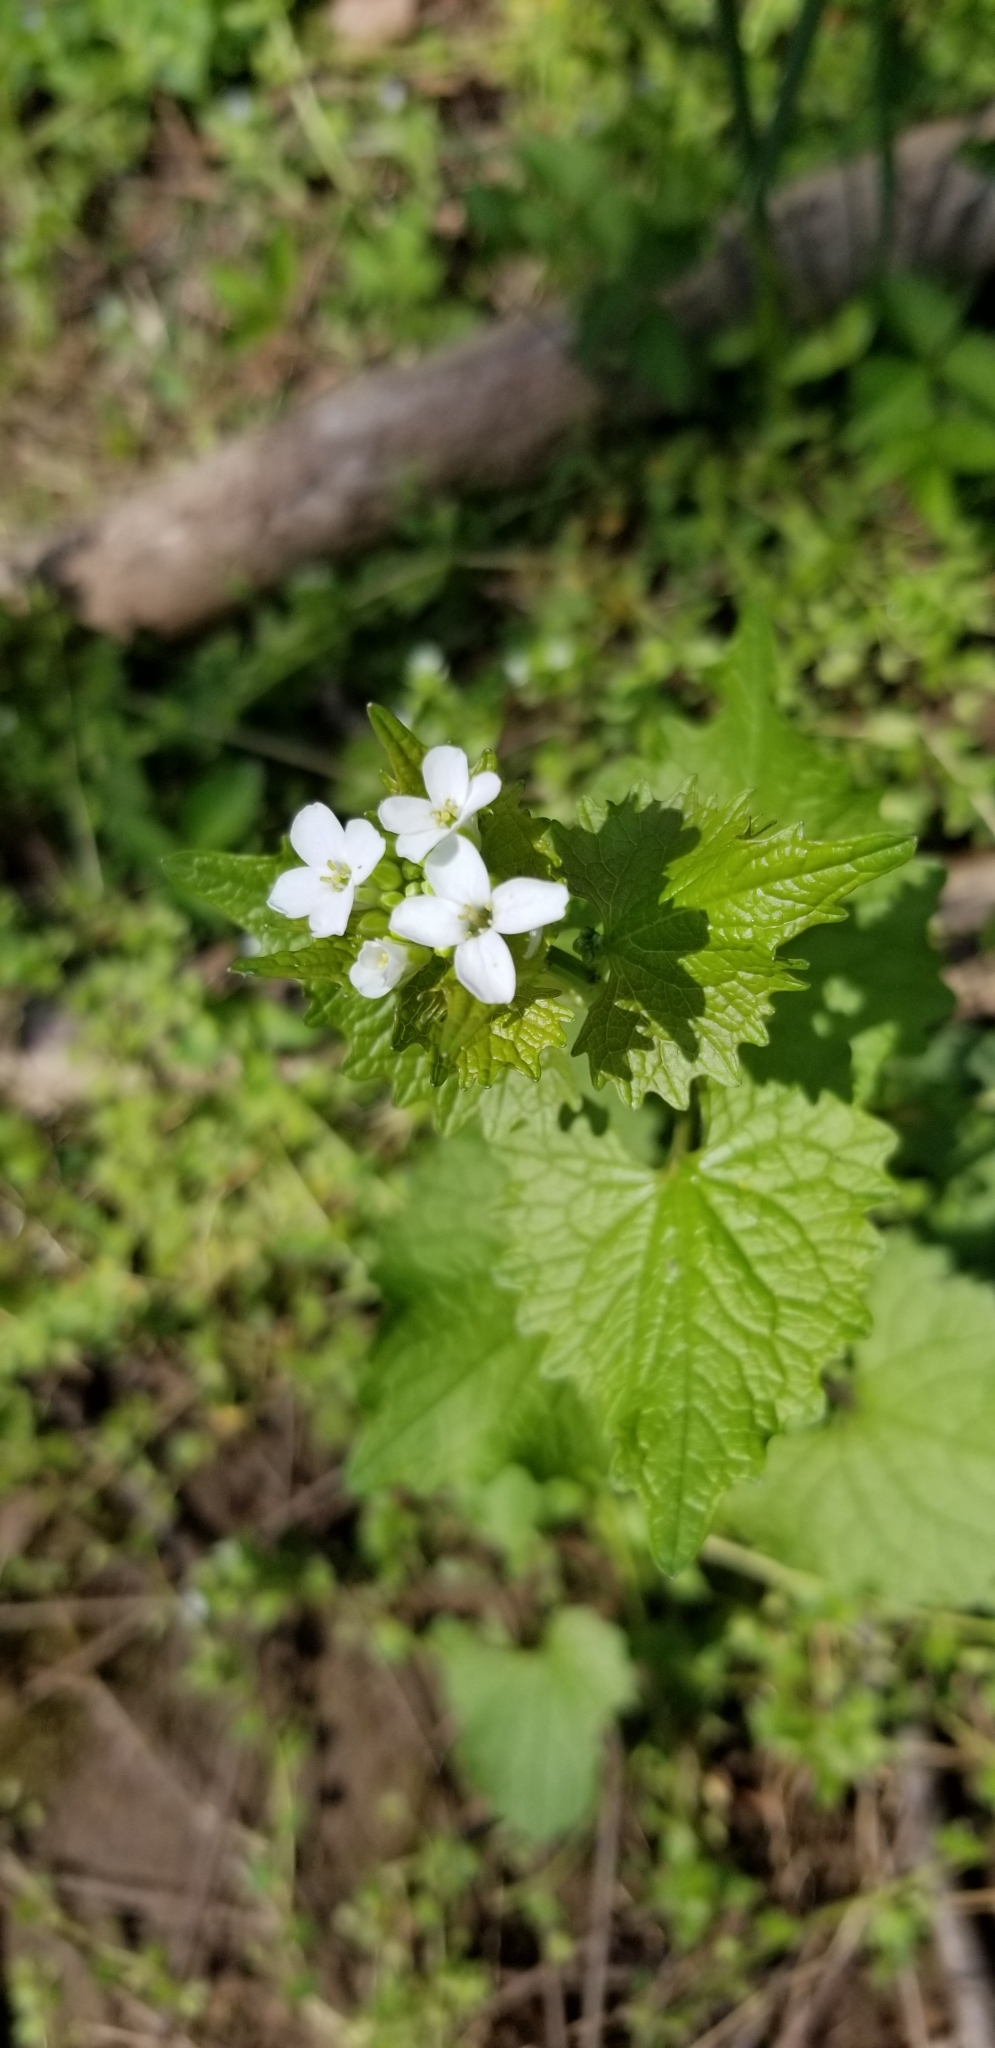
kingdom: Plantae
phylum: Tracheophyta
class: Magnoliopsida
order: Brassicales
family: Brassicaceae
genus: Alliaria
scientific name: Alliaria petiolata
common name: Garlic mustard
